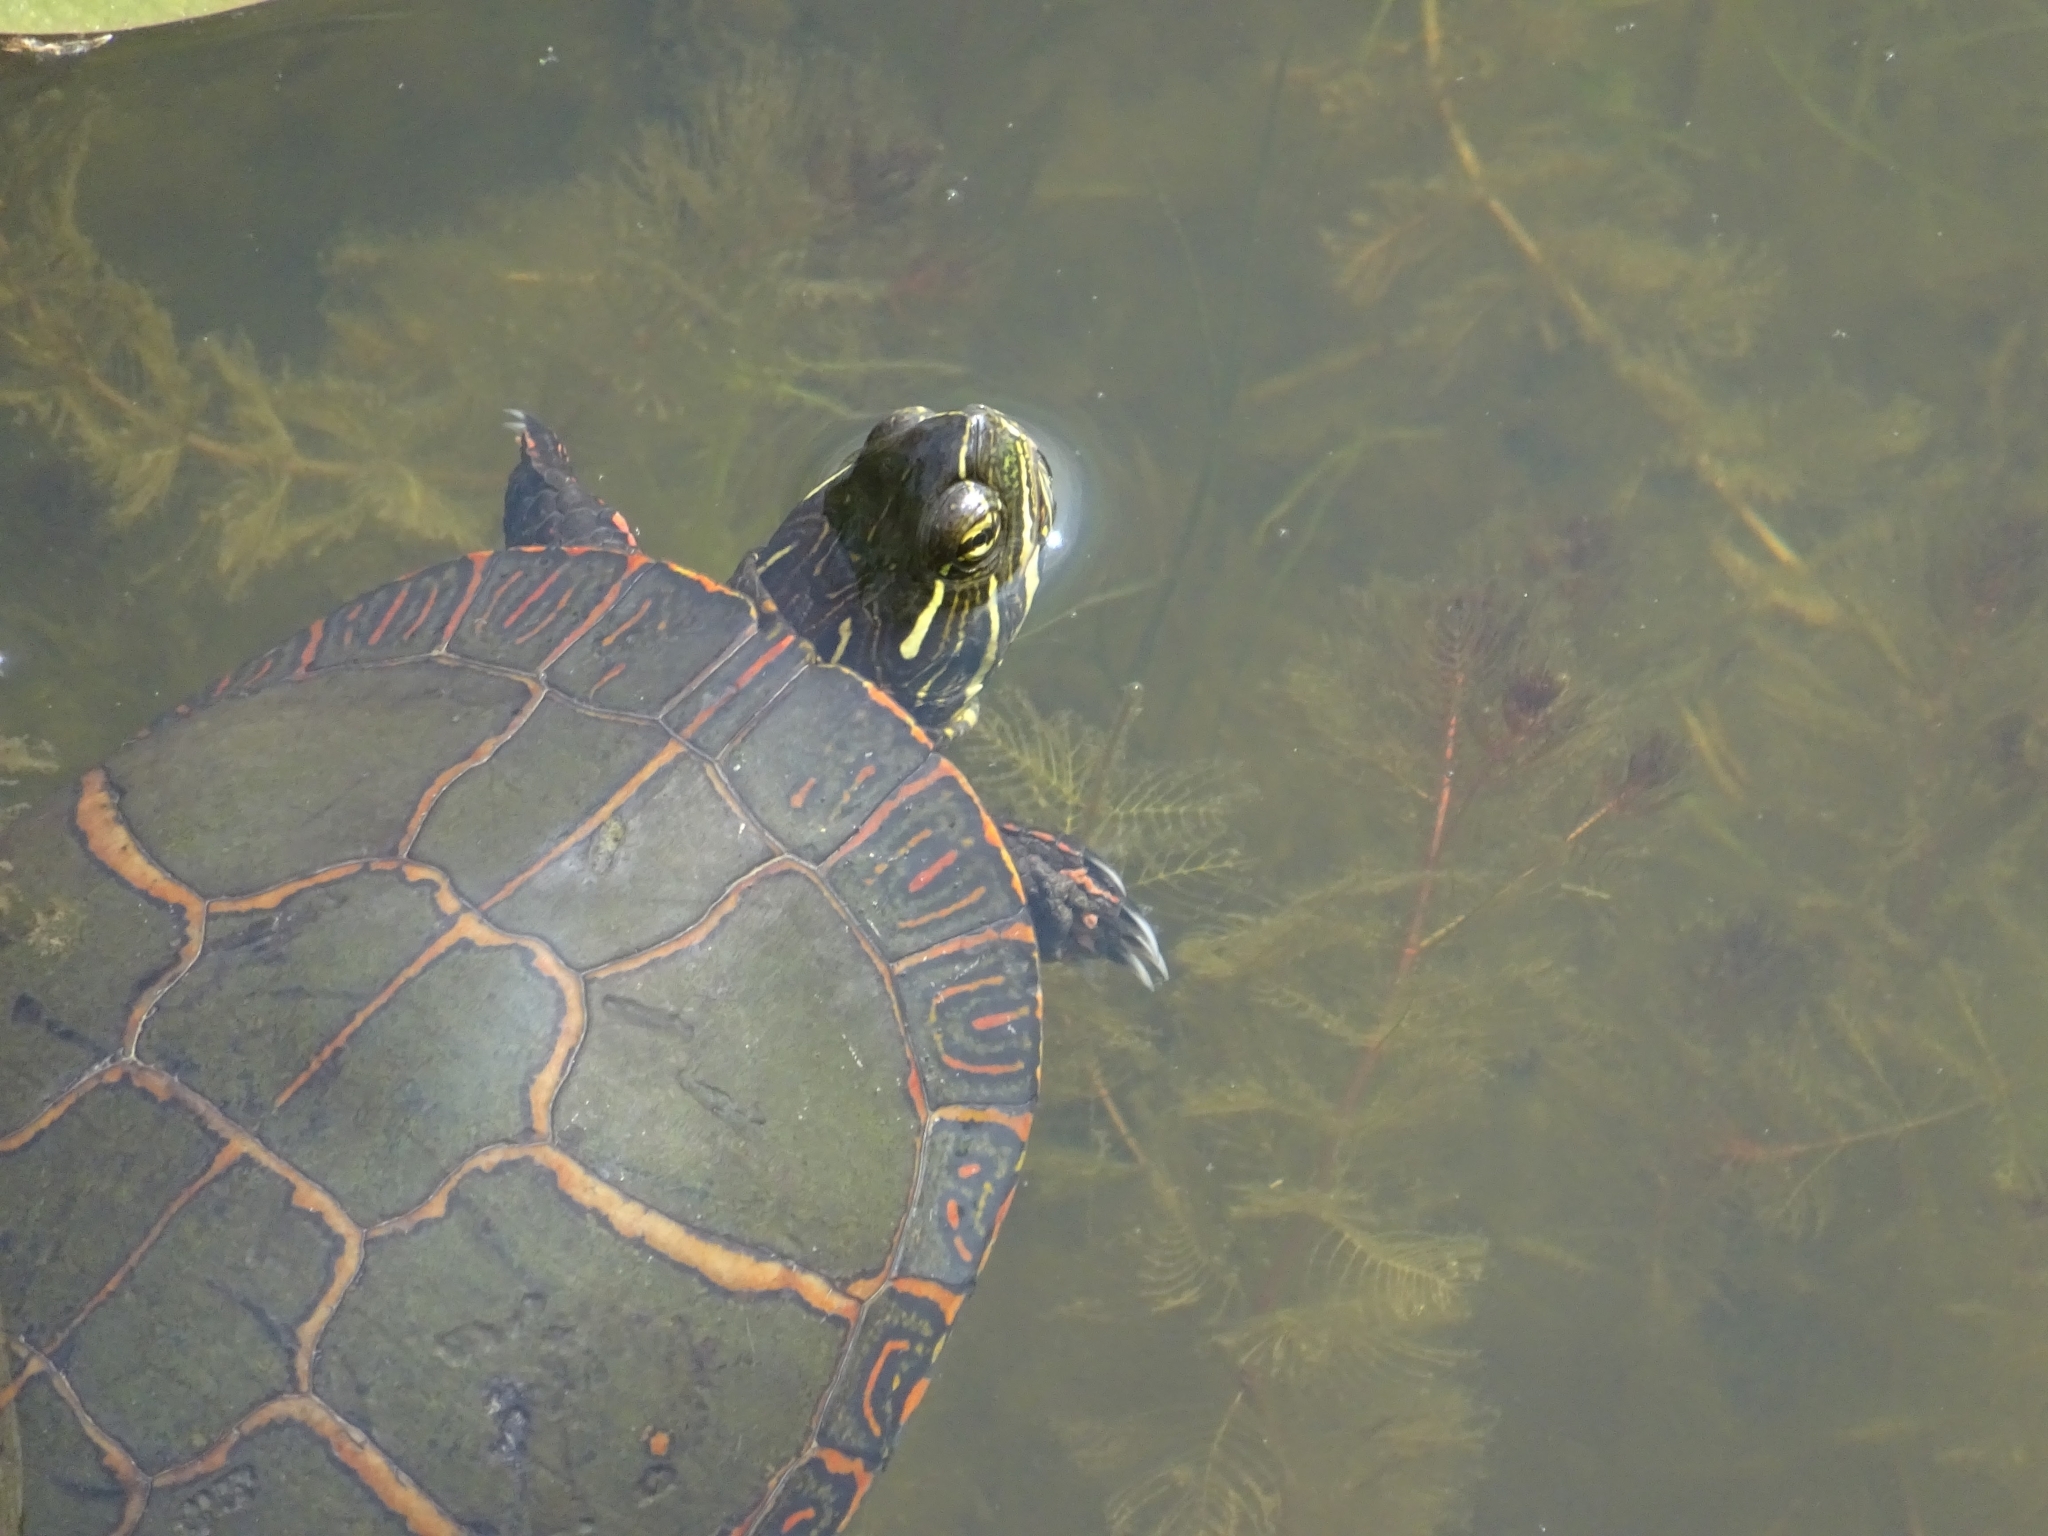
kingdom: Animalia
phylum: Chordata
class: Testudines
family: Emydidae
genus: Chrysemys
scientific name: Chrysemys picta
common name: Painted turtle
